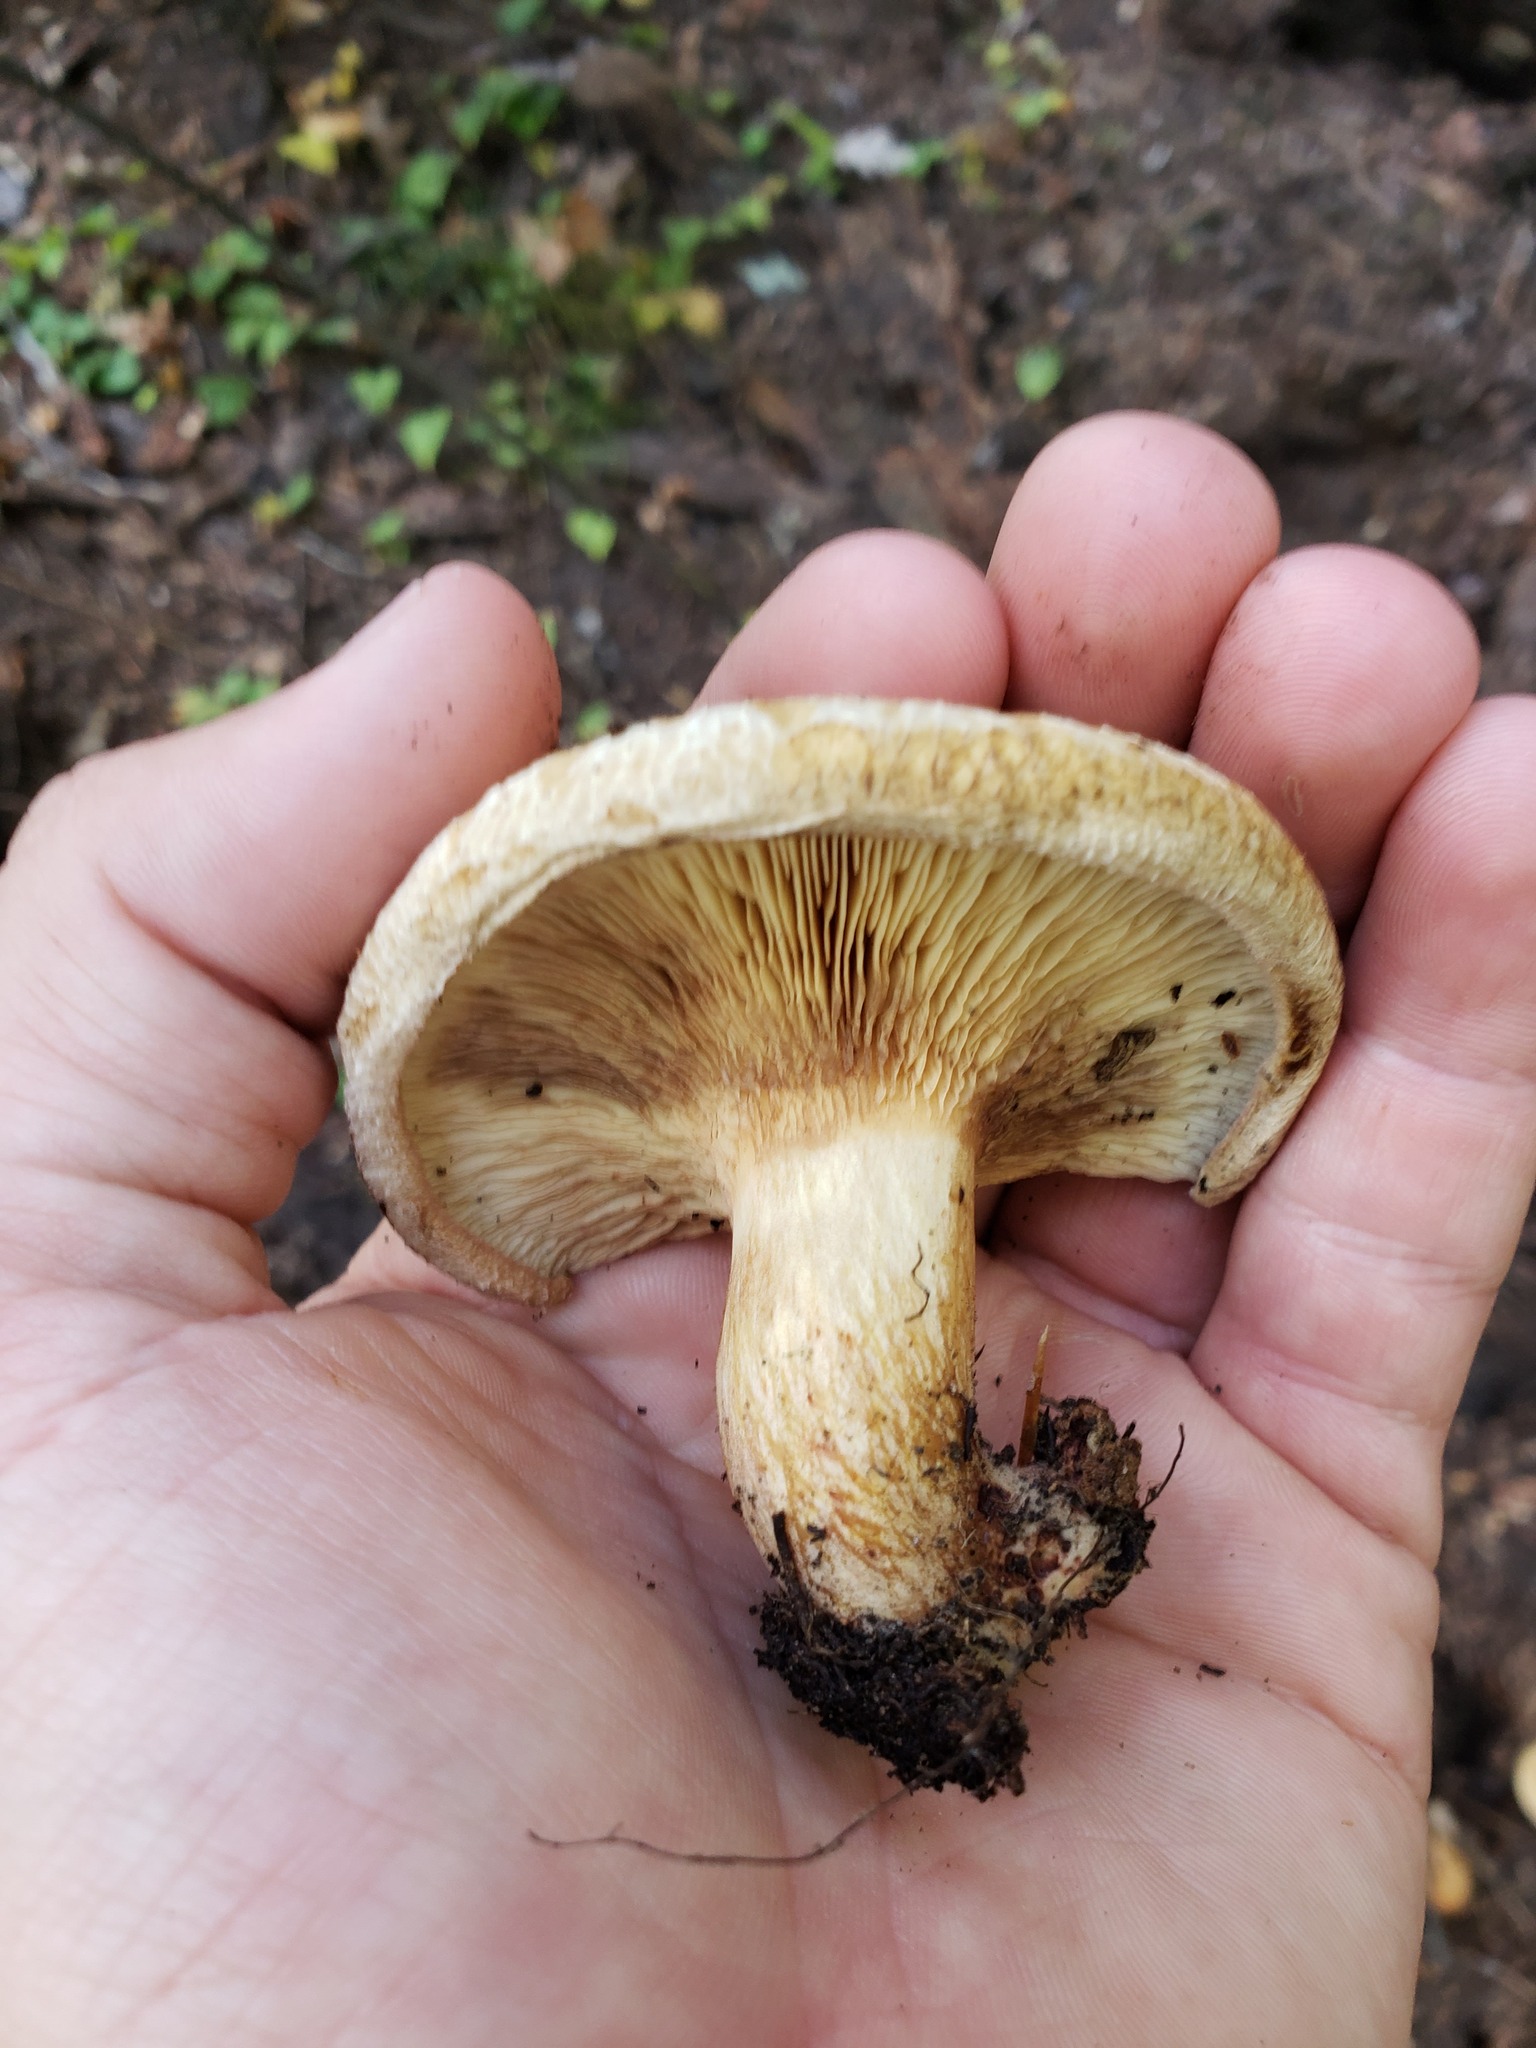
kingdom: Fungi
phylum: Basidiomycota
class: Agaricomycetes
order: Boletales
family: Paxillaceae
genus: Paxillus
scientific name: Paxillus involutus
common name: Brown roll rim
